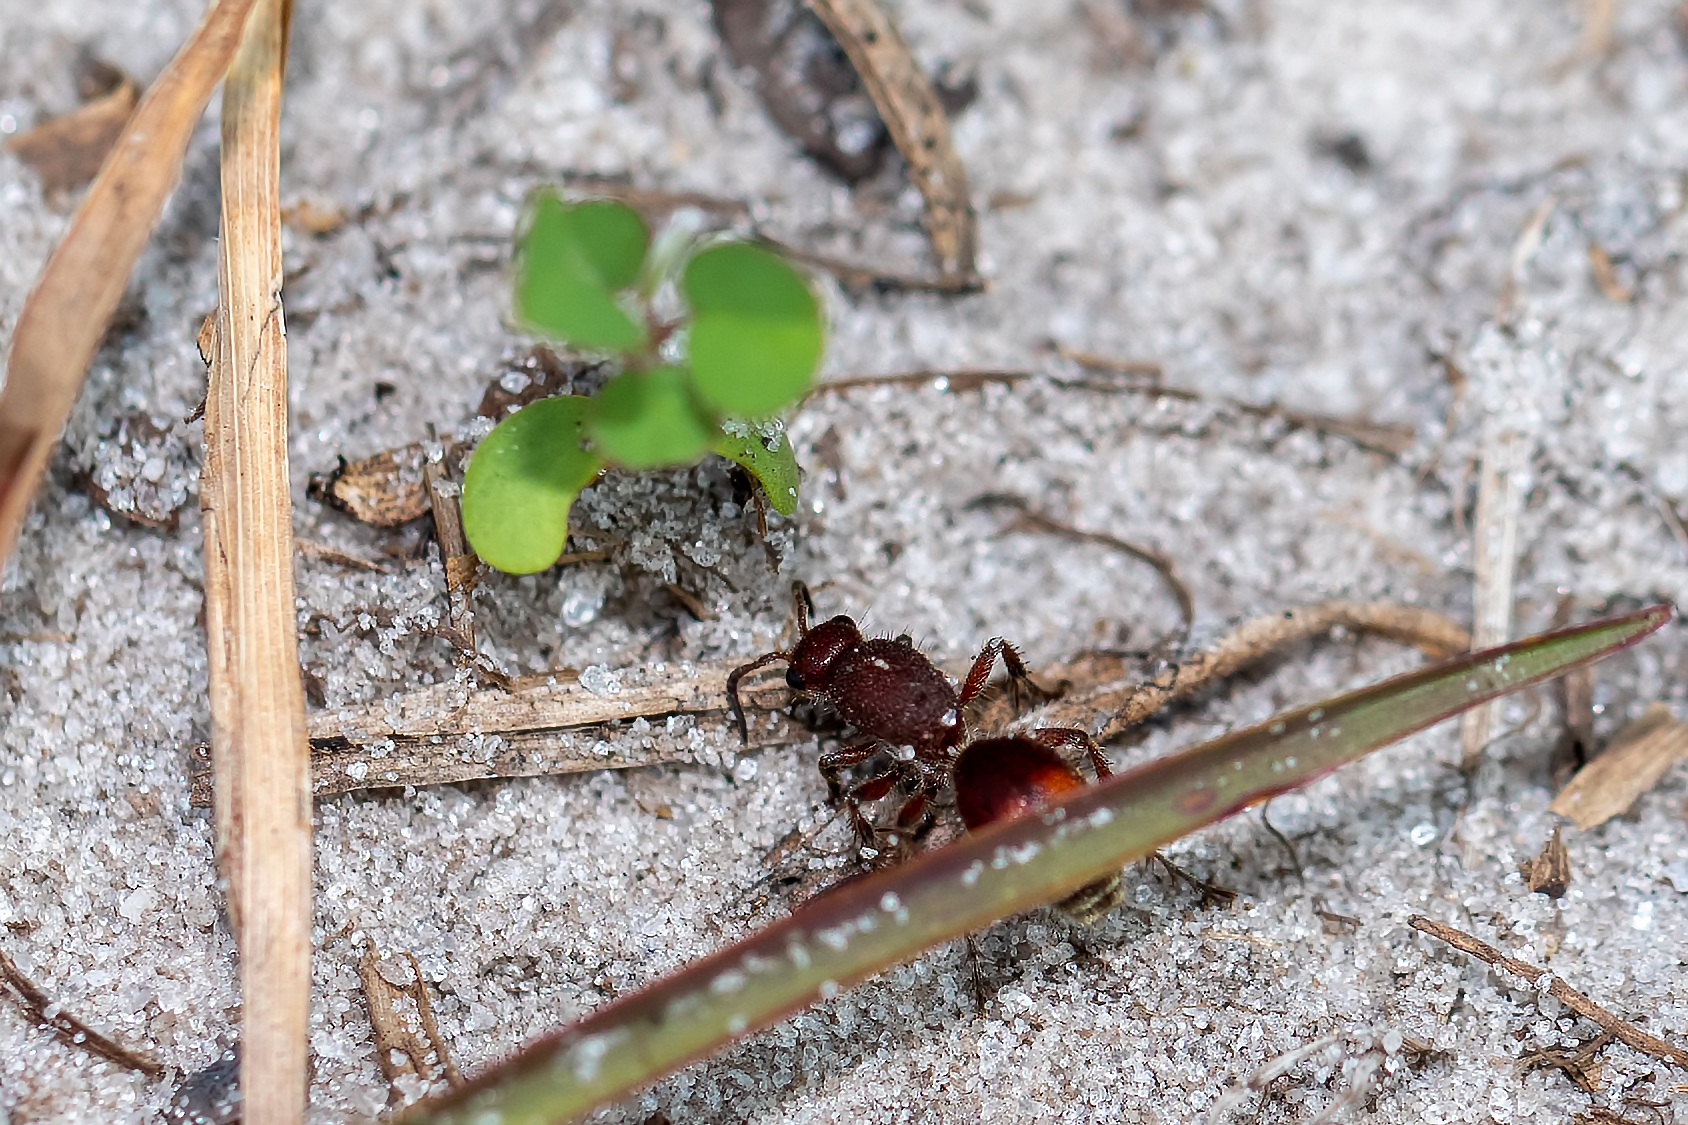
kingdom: Animalia
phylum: Arthropoda
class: Insecta
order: Hymenoptera
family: Mutillidae
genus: Dasymutilla
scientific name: Dasymutilla
